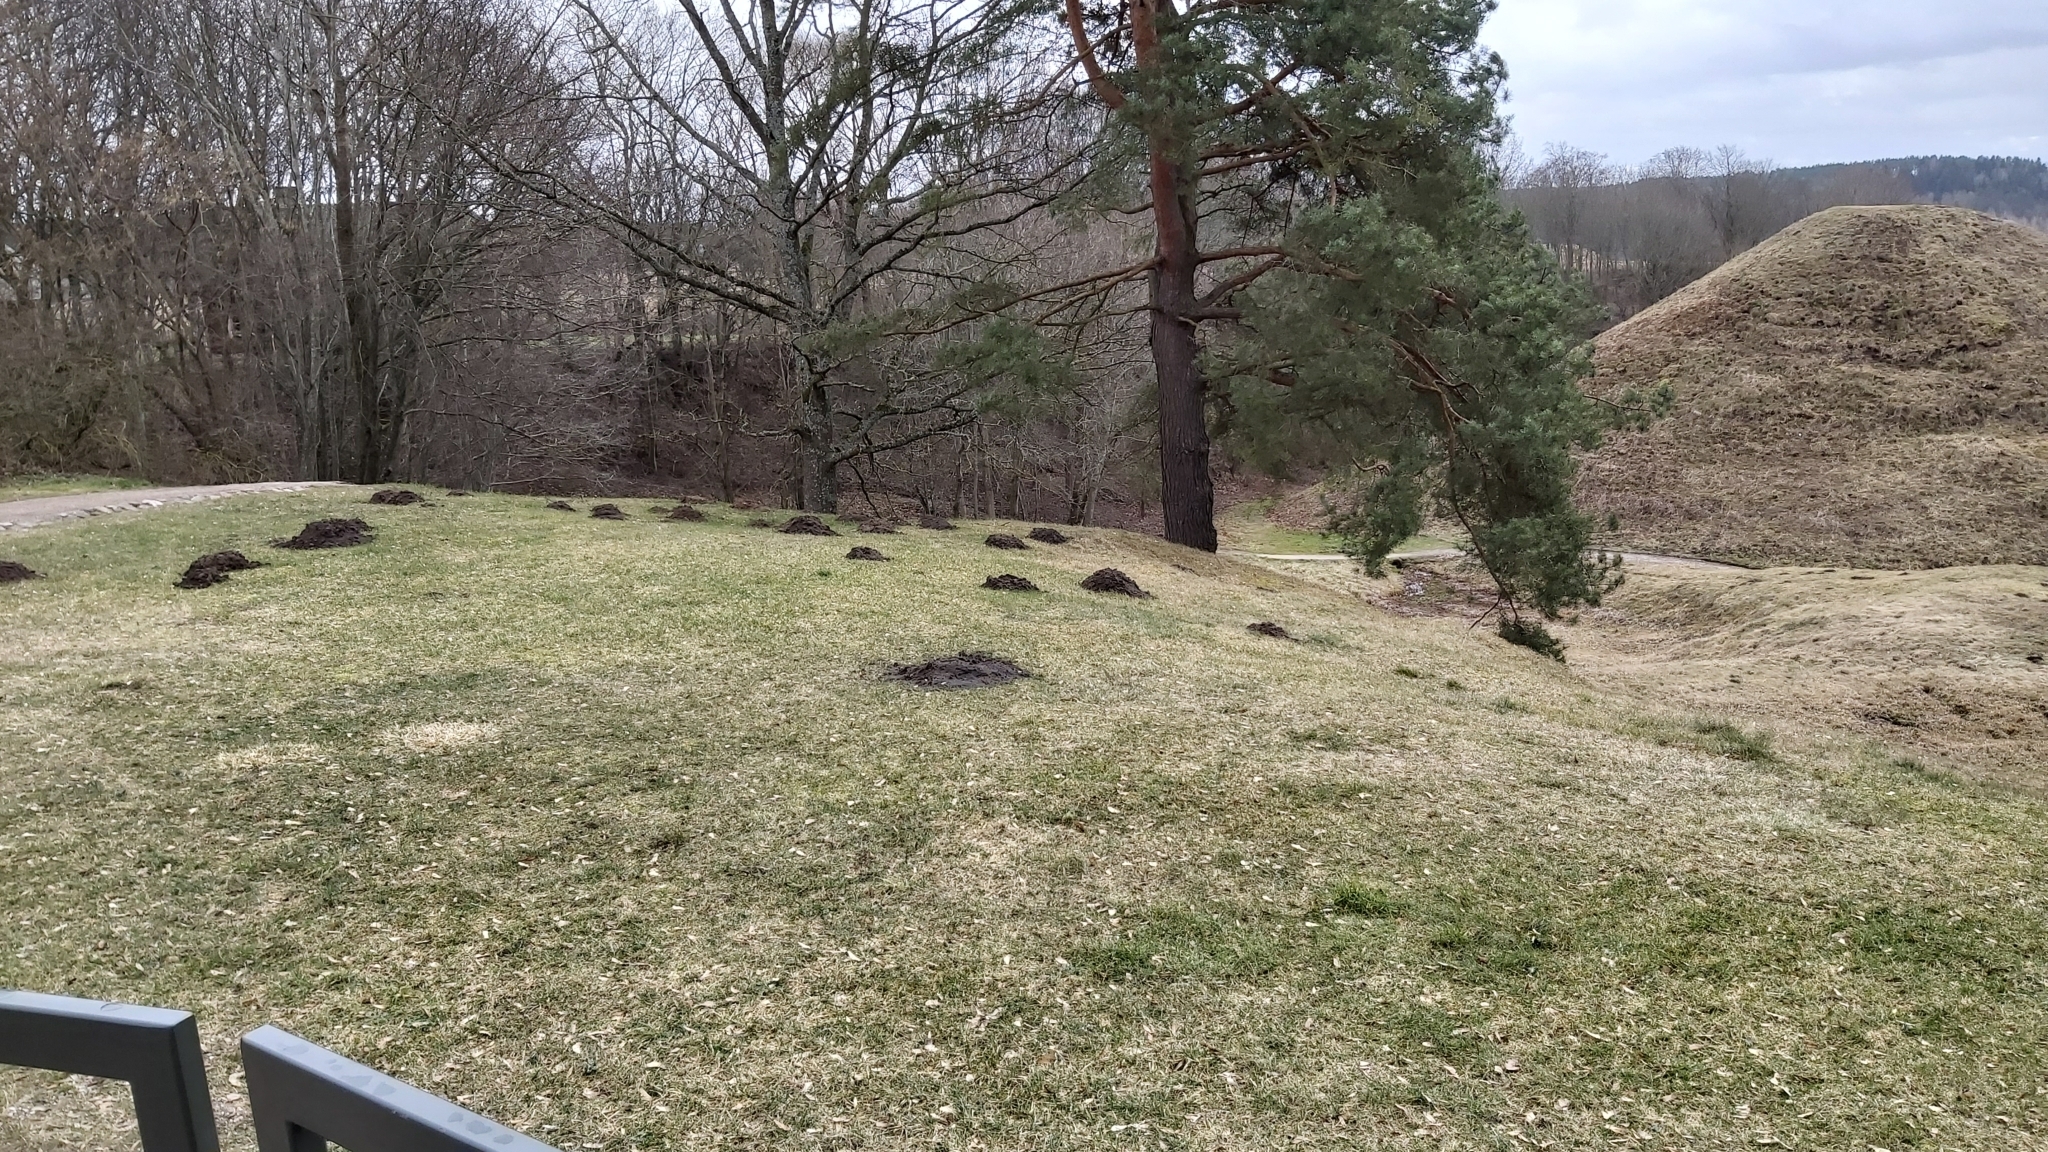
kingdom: Animalia
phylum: Chordata
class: Mammalia
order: Soricomorpha
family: Talpidae
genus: Talpa
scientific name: Talpa europaea
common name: European mole
